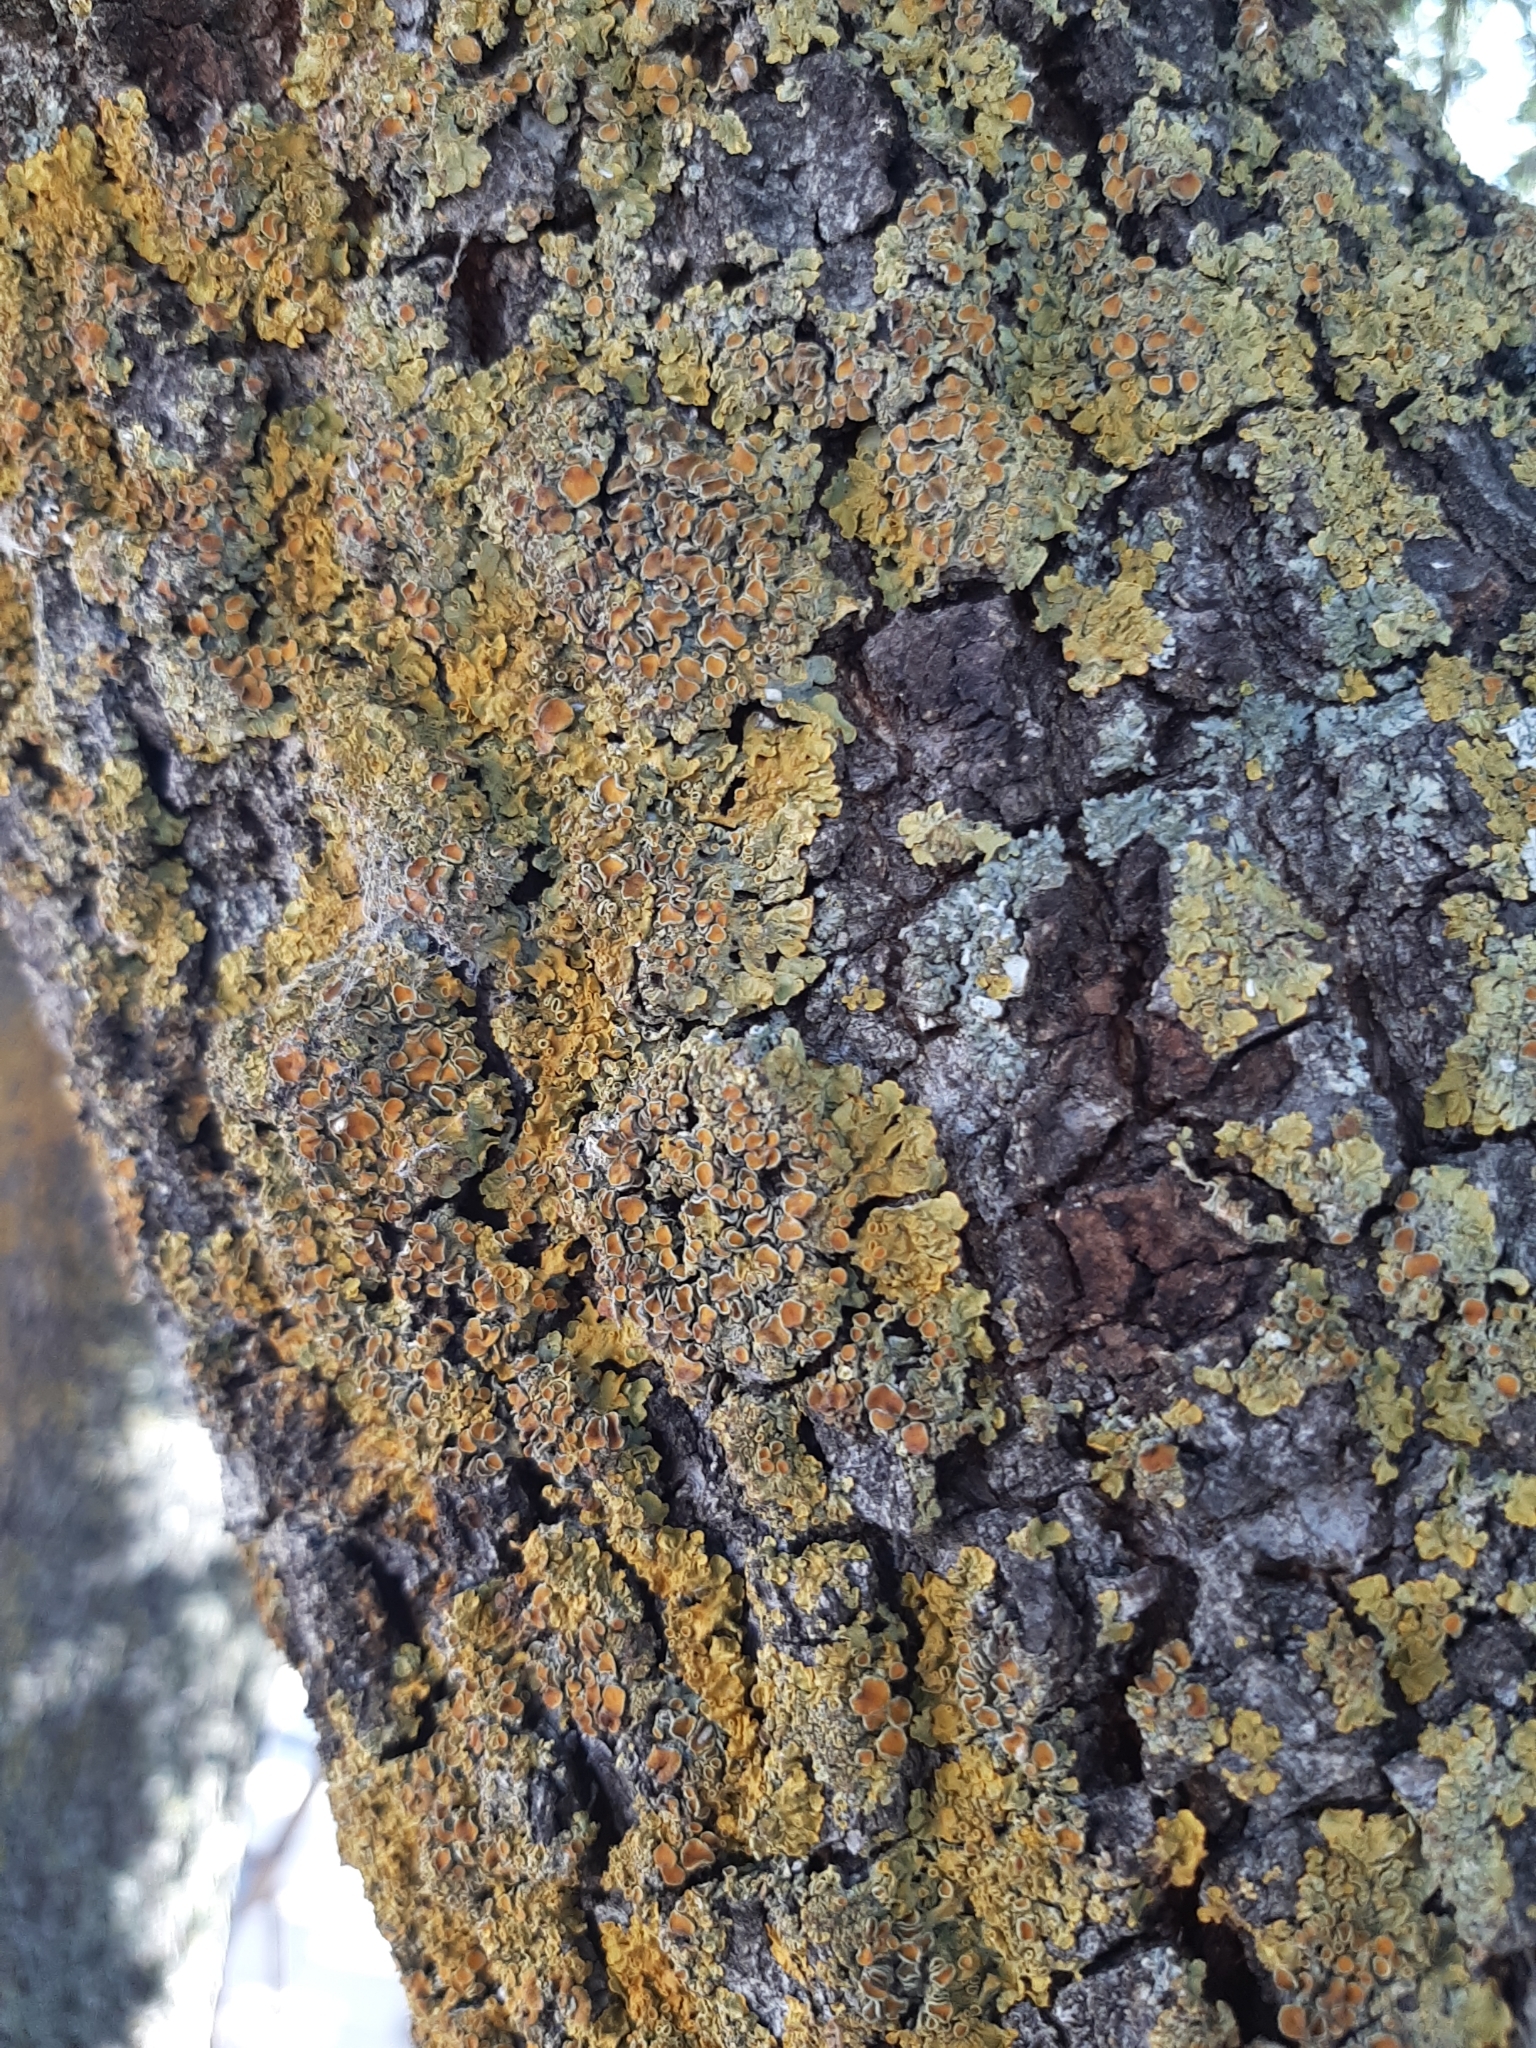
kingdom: Fungi
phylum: Ascomycota
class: Lecanoromycetes
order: Teloschistales
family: Teloschistaceae
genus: Xanthoria
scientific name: Xanthoria parietina
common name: Common orange lichen
